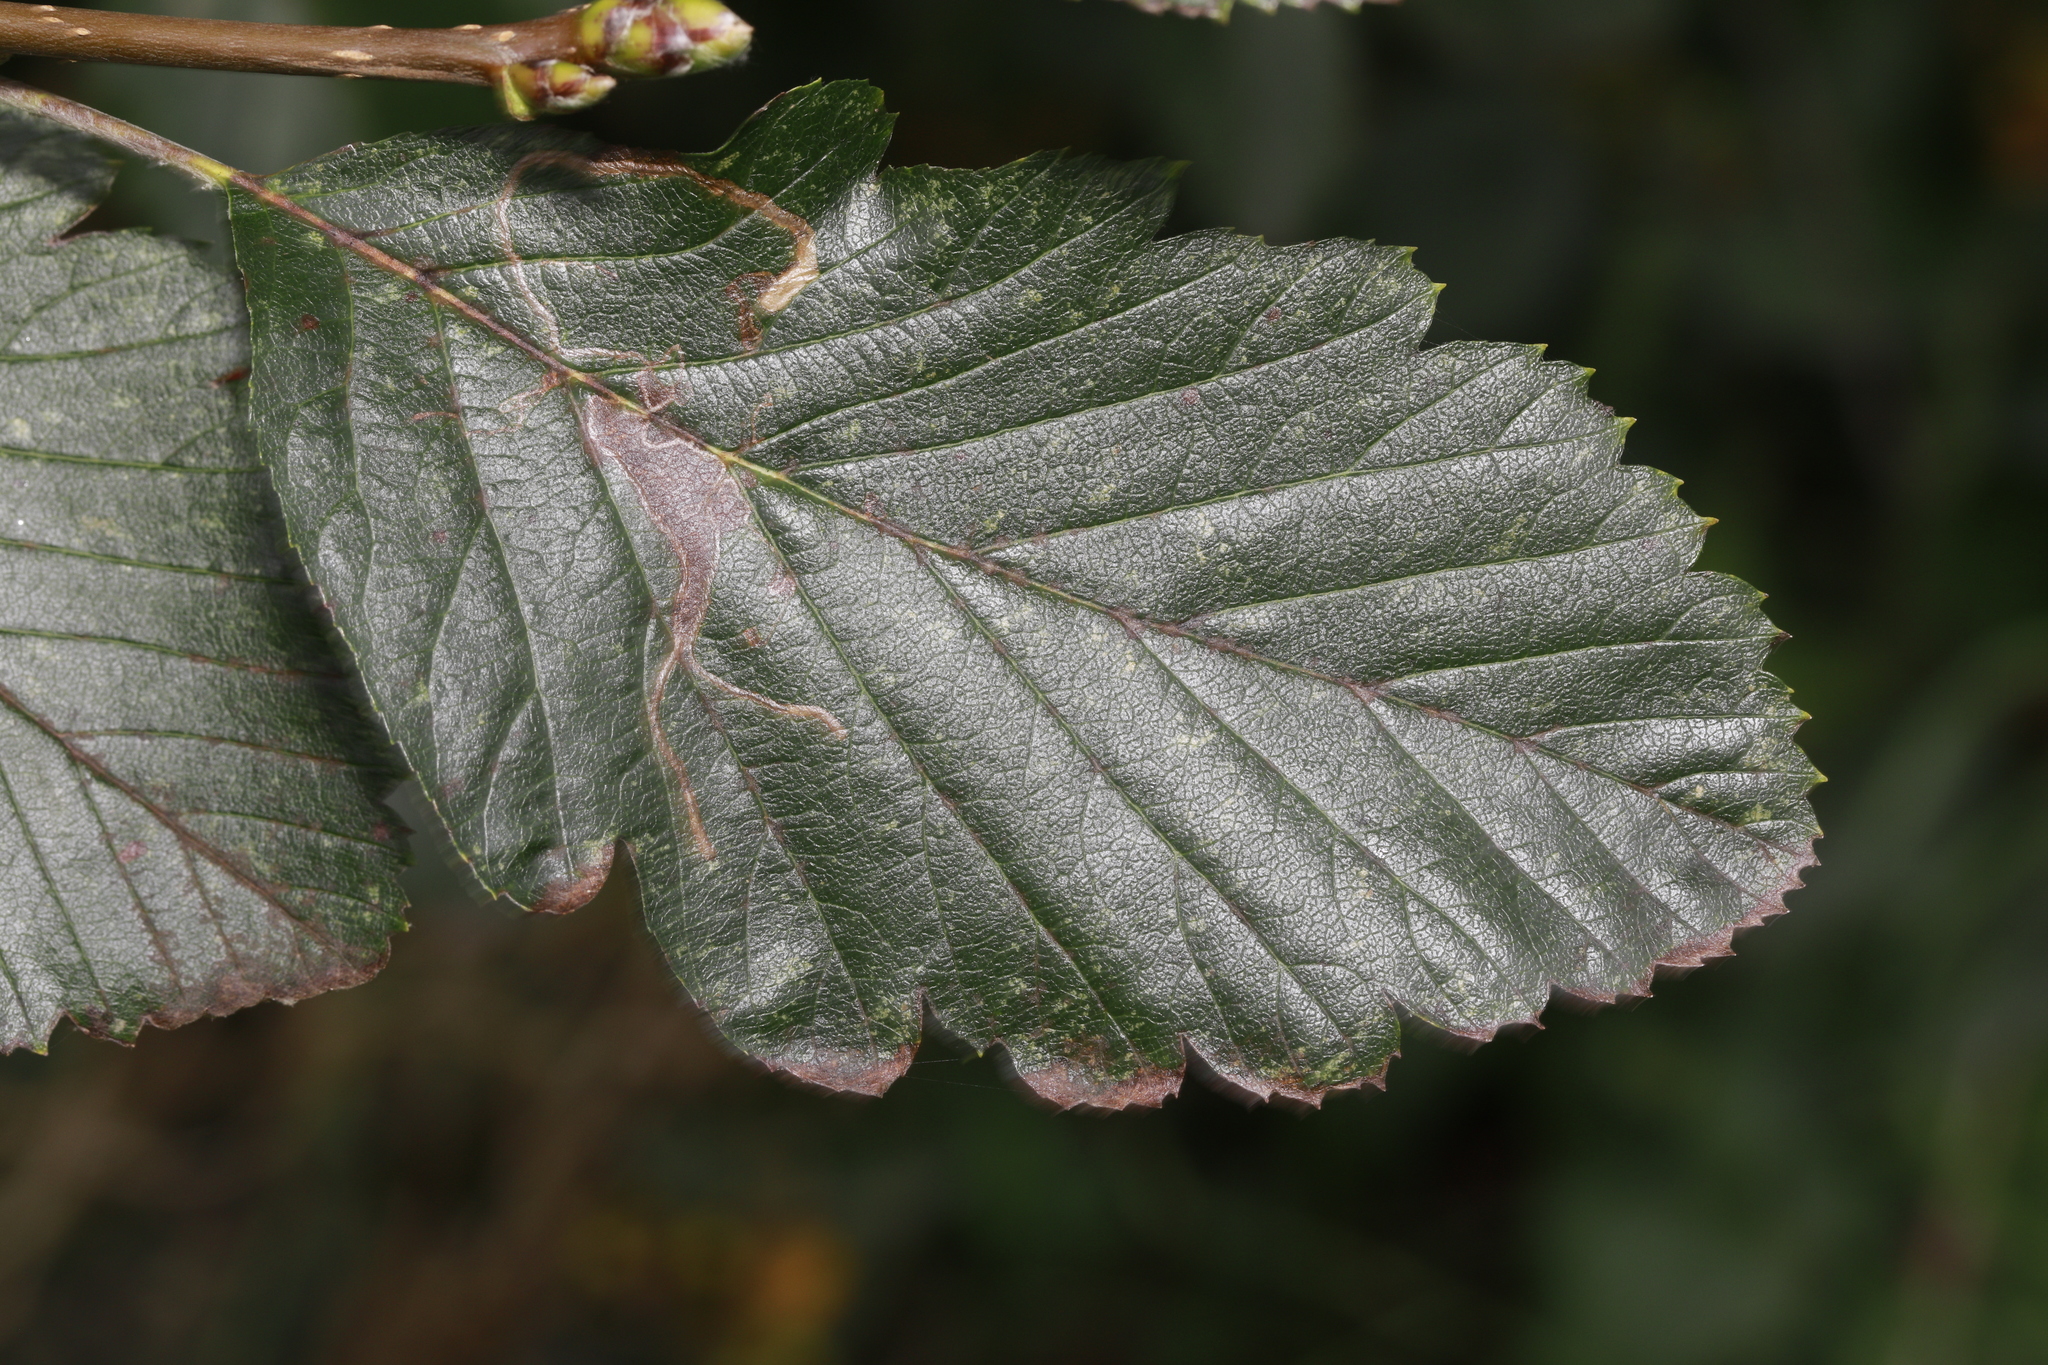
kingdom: Animalia
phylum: Arthropoda
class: Insecta
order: Lepidoptera
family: Lyonetiidae
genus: Lyonetia
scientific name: Lyonetia clerkella
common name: Apple leaf miner
